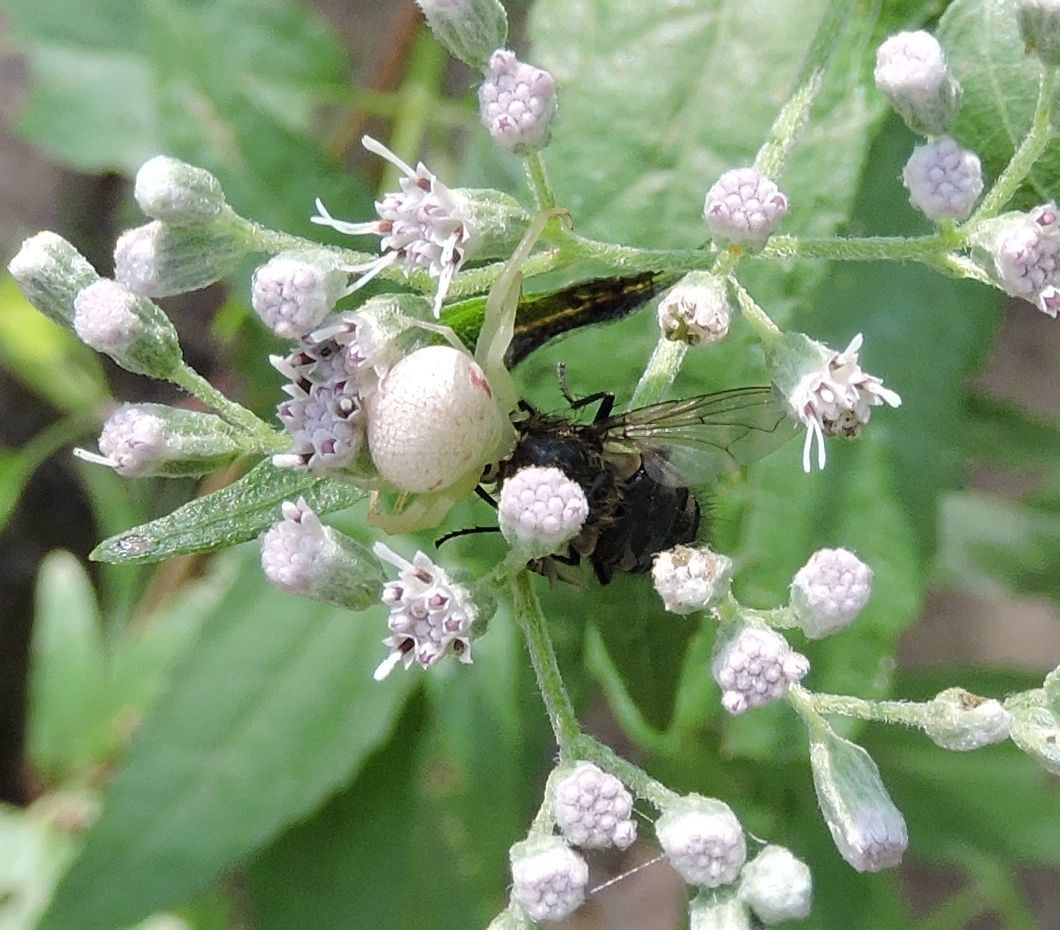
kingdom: Animalia
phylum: Arthropoda
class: Arachnida
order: Araneae
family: Thomisidae
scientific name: Thomisidae
